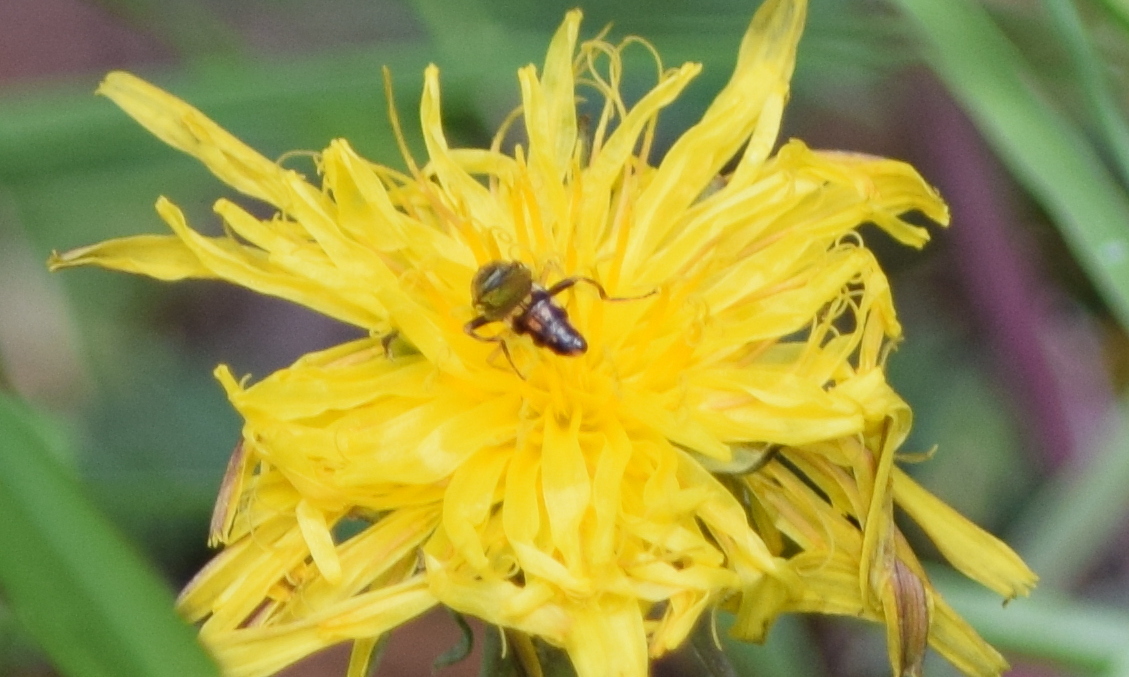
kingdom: Animalia
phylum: Arthropoda
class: Insecta
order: Diptera
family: Syrphidae
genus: Toxomerus
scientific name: Toxomerus geminatus
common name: Eastern calligrapher
